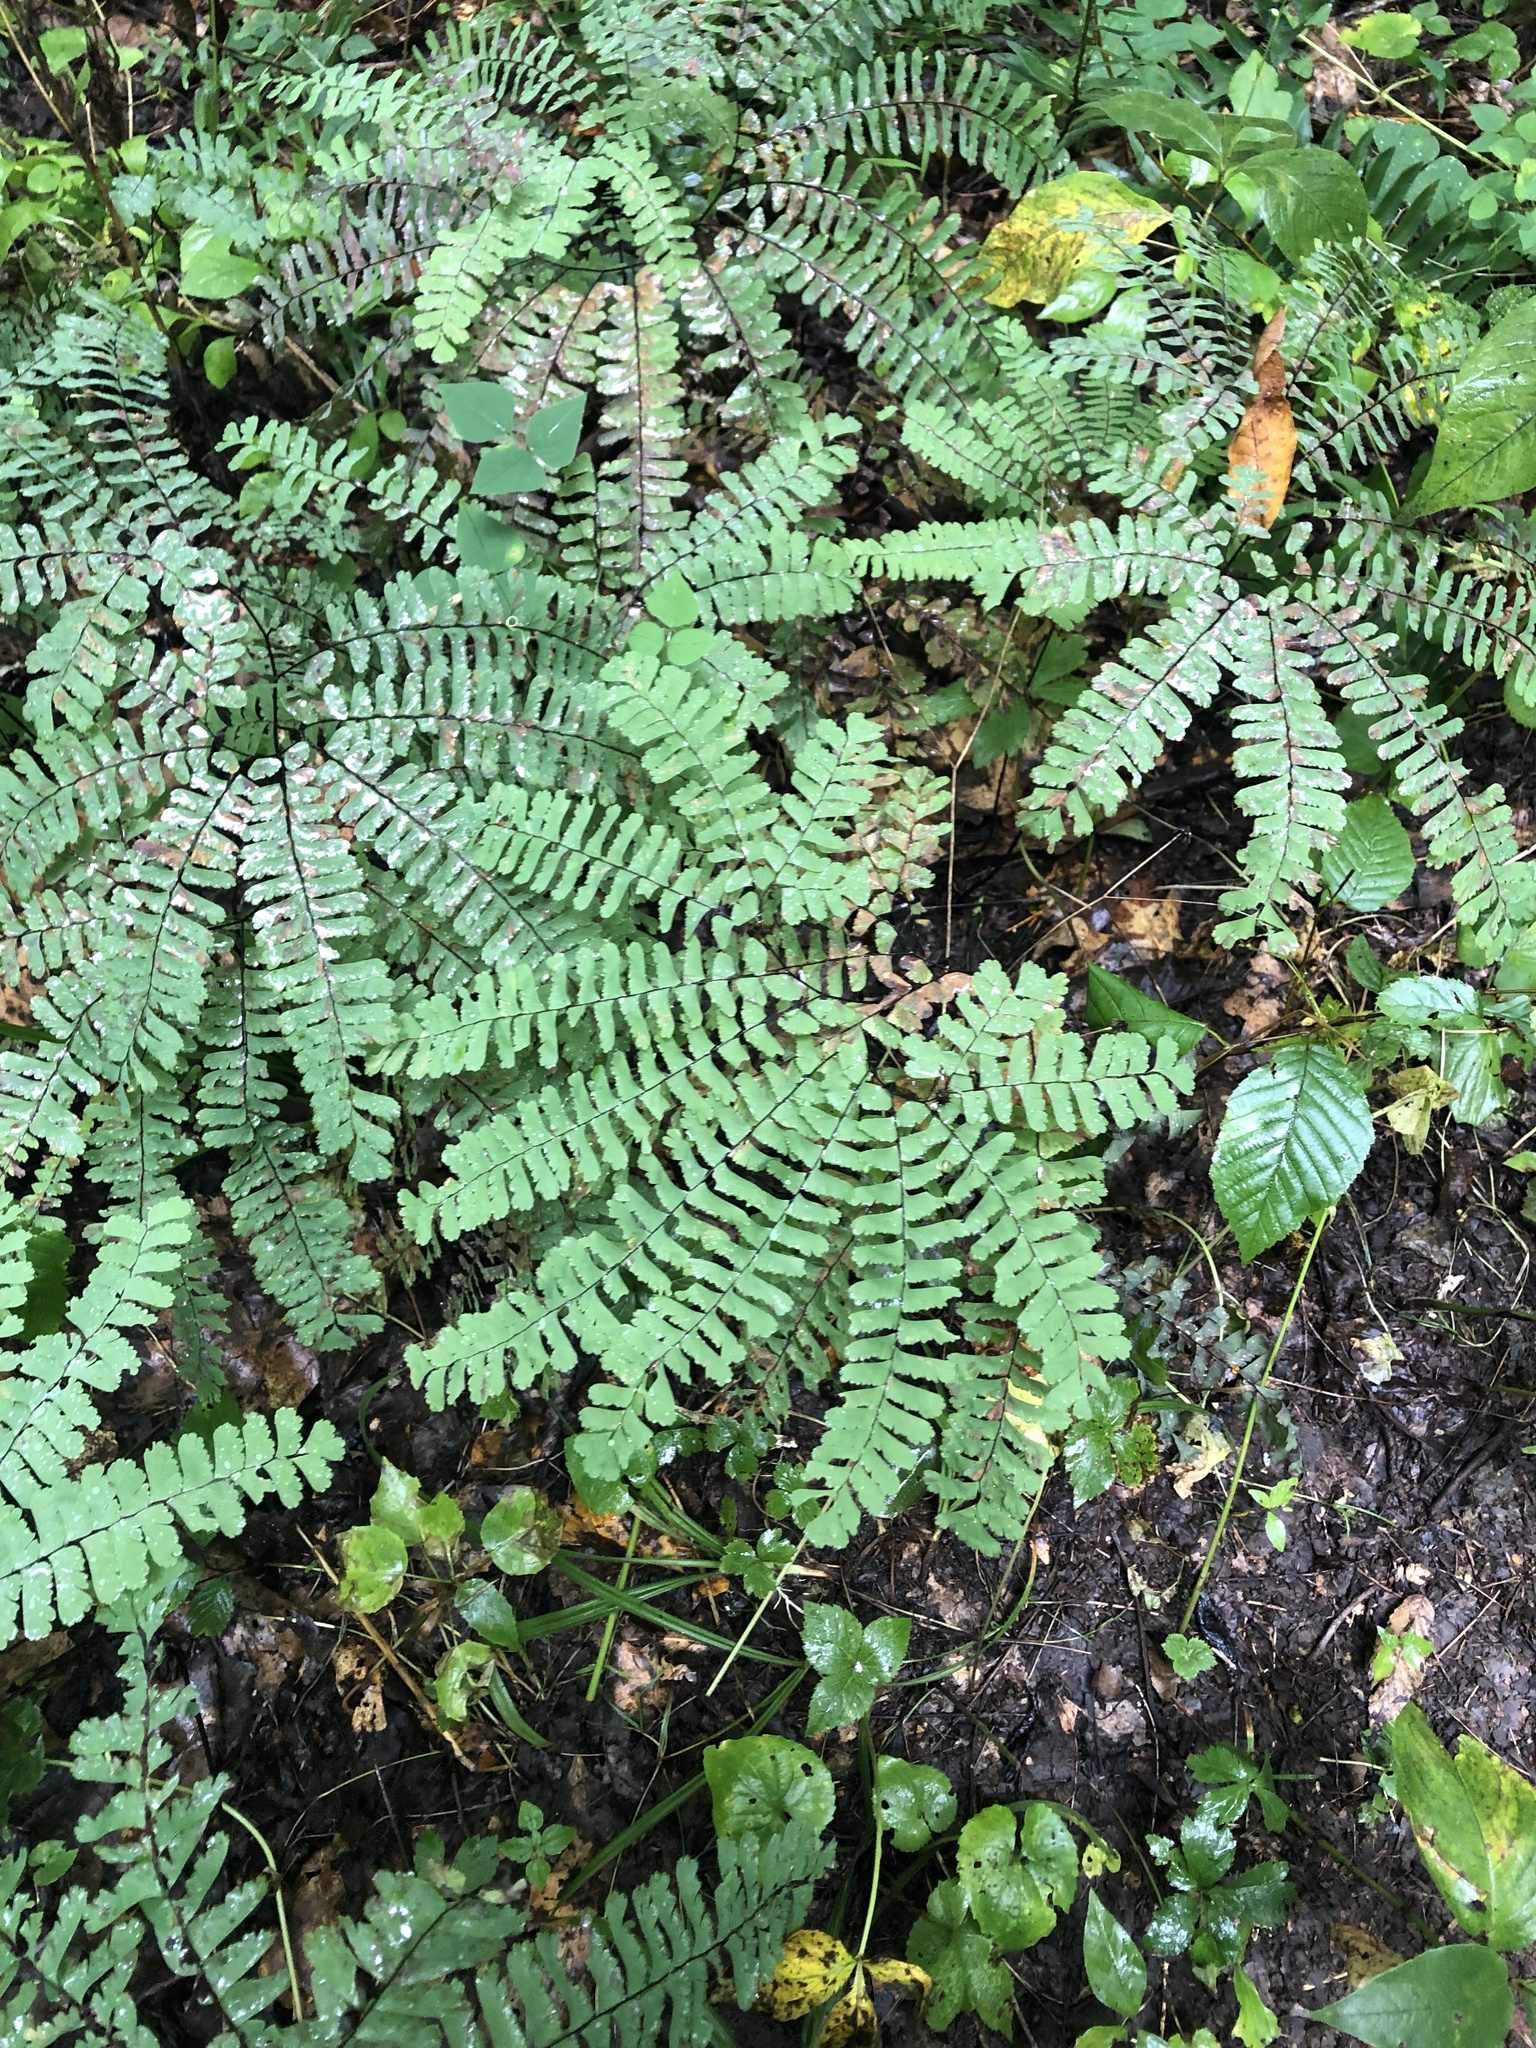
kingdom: Plantae
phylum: Tracheophyta
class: Polypodiopsida
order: Polypodiales
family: Pteridaceae
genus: Adiantum
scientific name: Adiantum pedatum
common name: Five-finger fern
